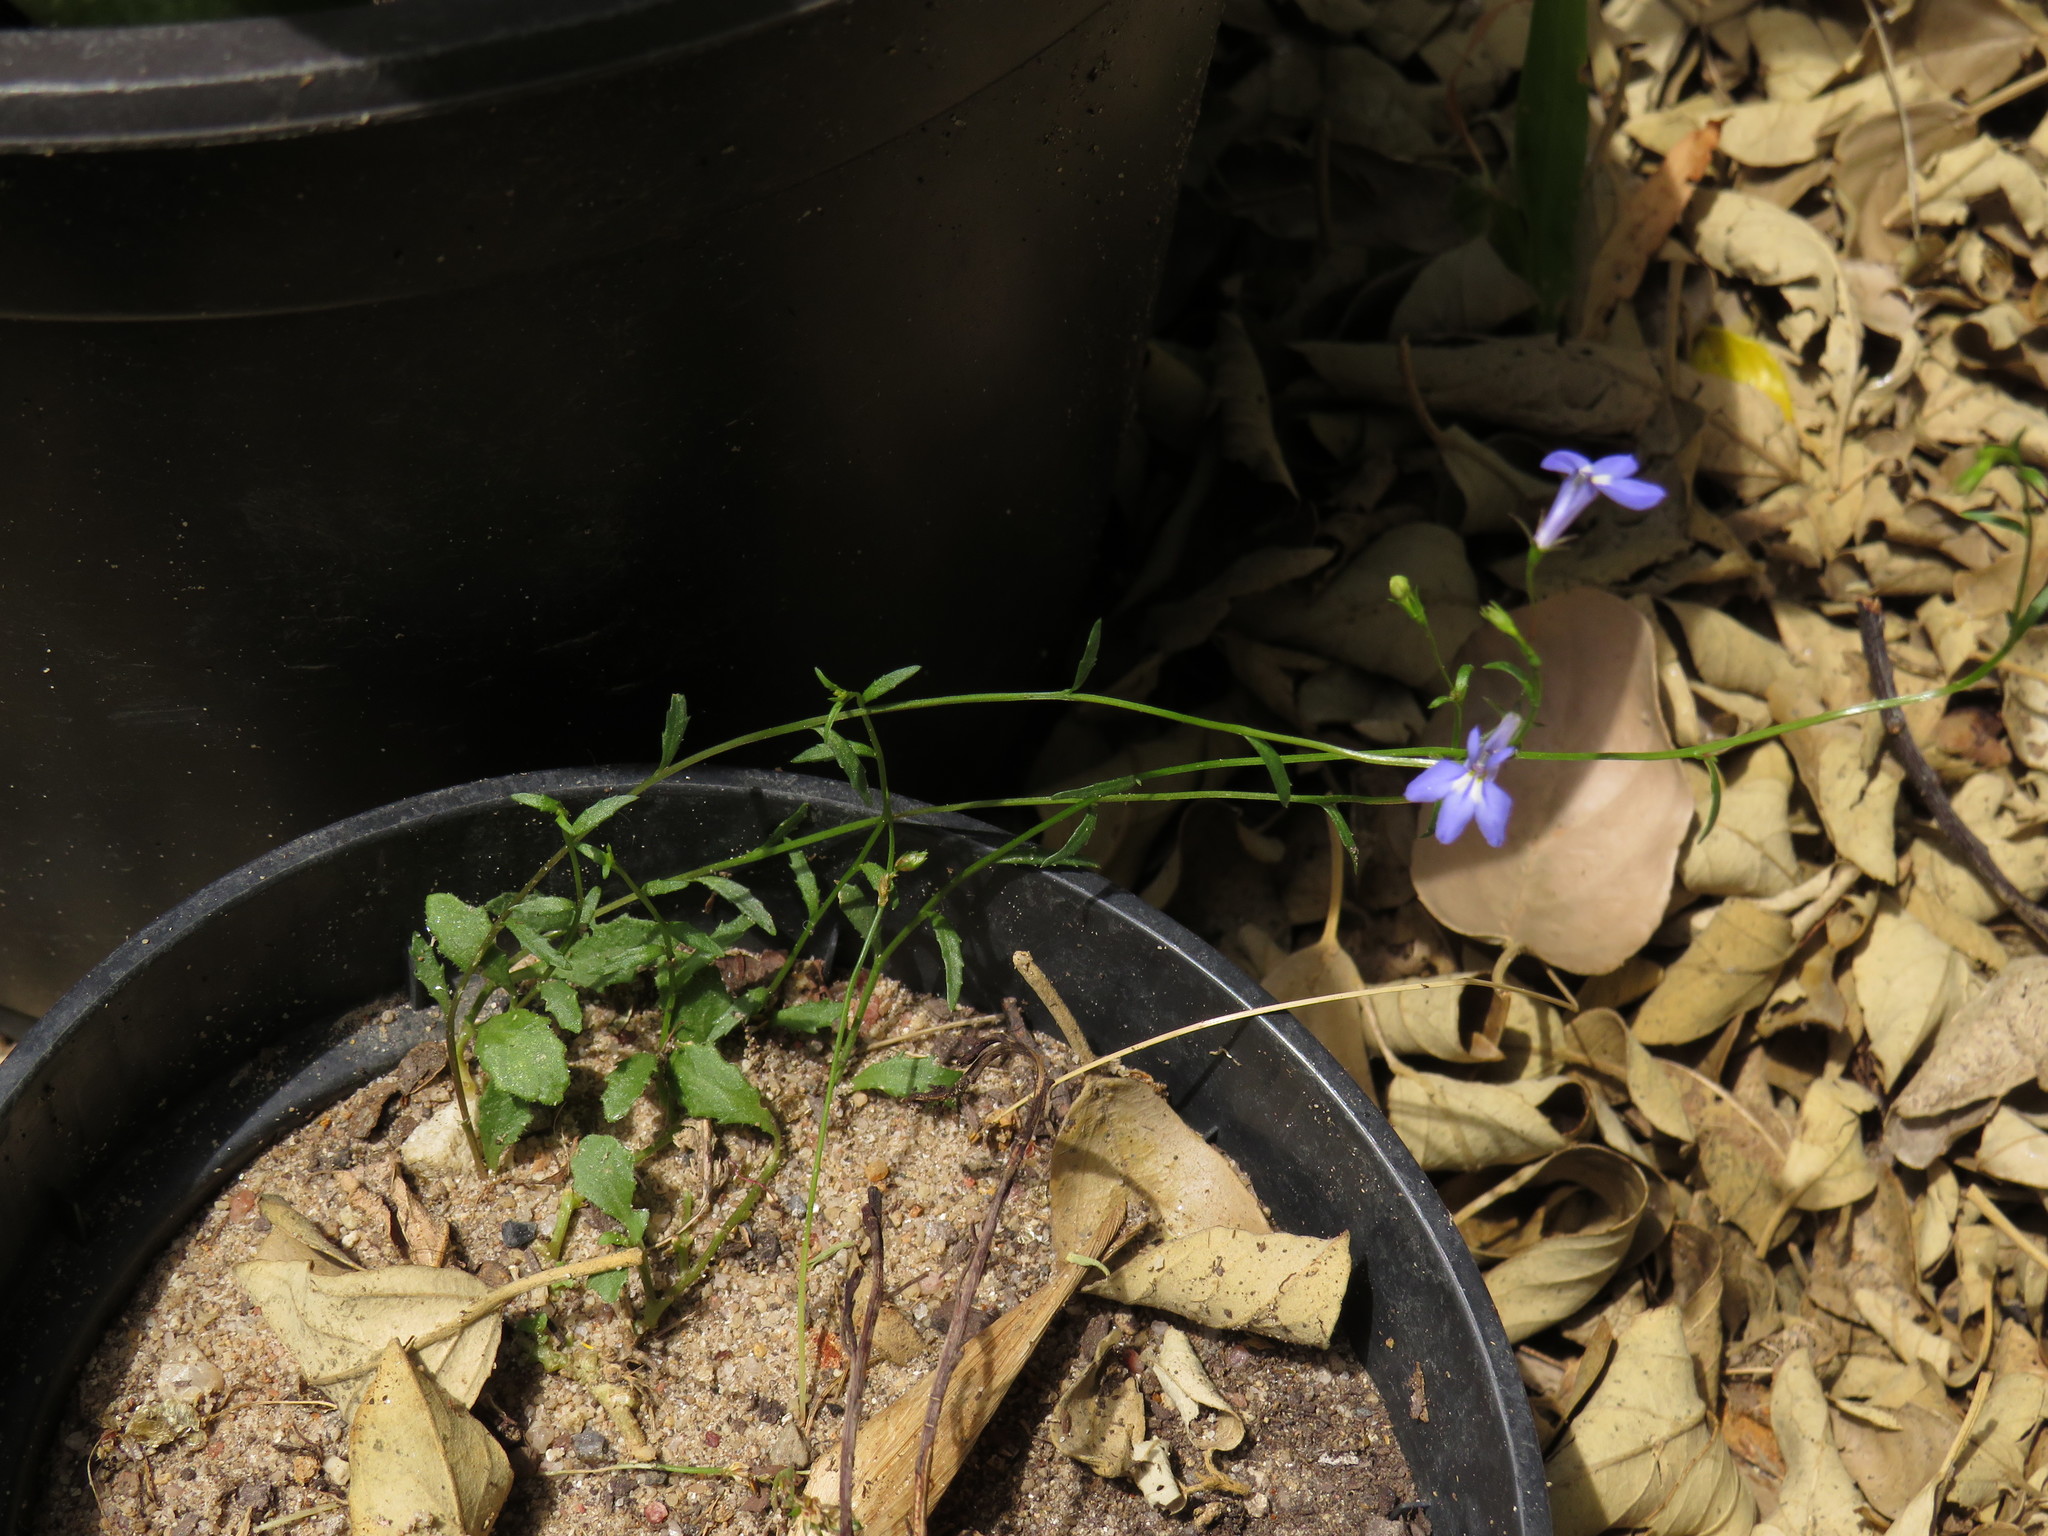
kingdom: Plantae
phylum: Tracheophyta
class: Magnoliopsida
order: Asterales
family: Campanulaceae
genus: Lobelia
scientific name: Lobelia erinus
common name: Edging lobelia
